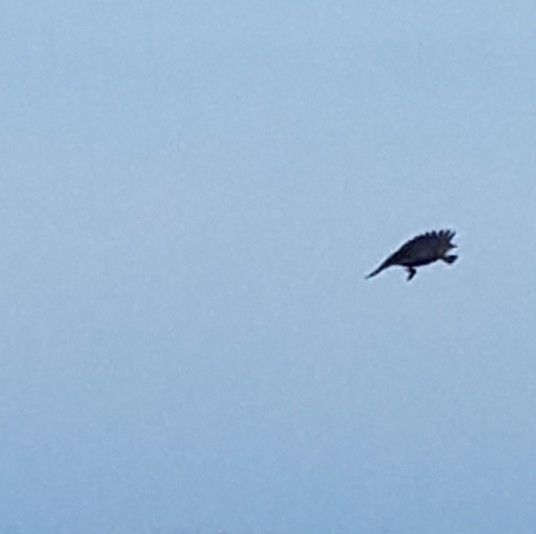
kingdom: Animalia
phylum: Chordata
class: Aves
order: Passeriformes
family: Icteridae
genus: Agelaius
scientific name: Agelaius phoeniceus
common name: Red-winged blackbird
